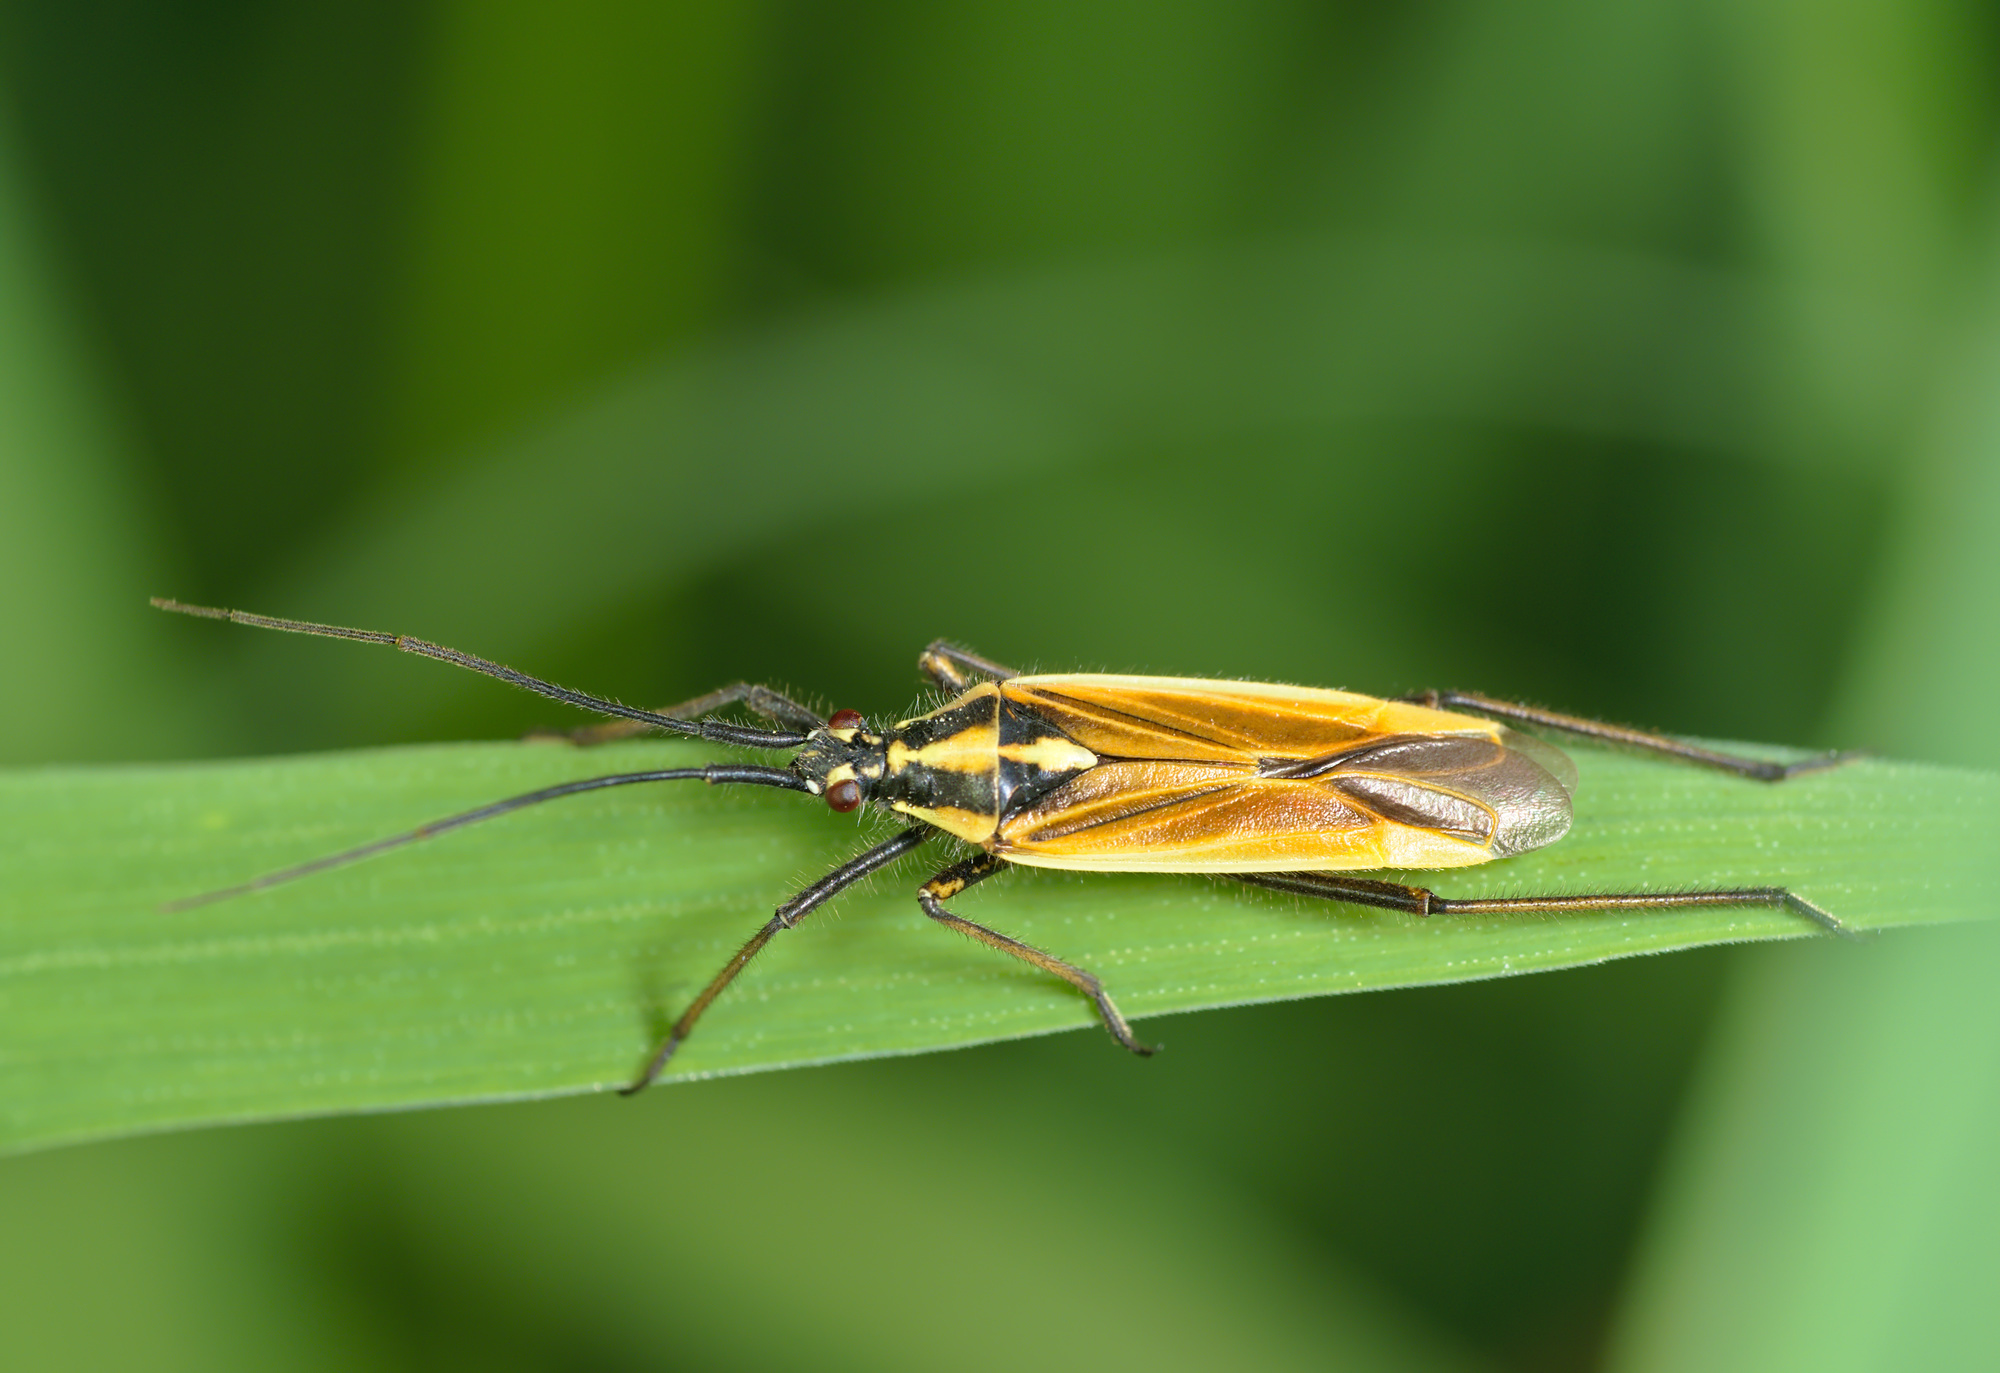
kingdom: Animalia
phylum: Arthropoda
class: Insecta
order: Hemiptera
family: Miridae
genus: Leptopterna
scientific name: Leptopterna dolabrata
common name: Meadow plant bug
